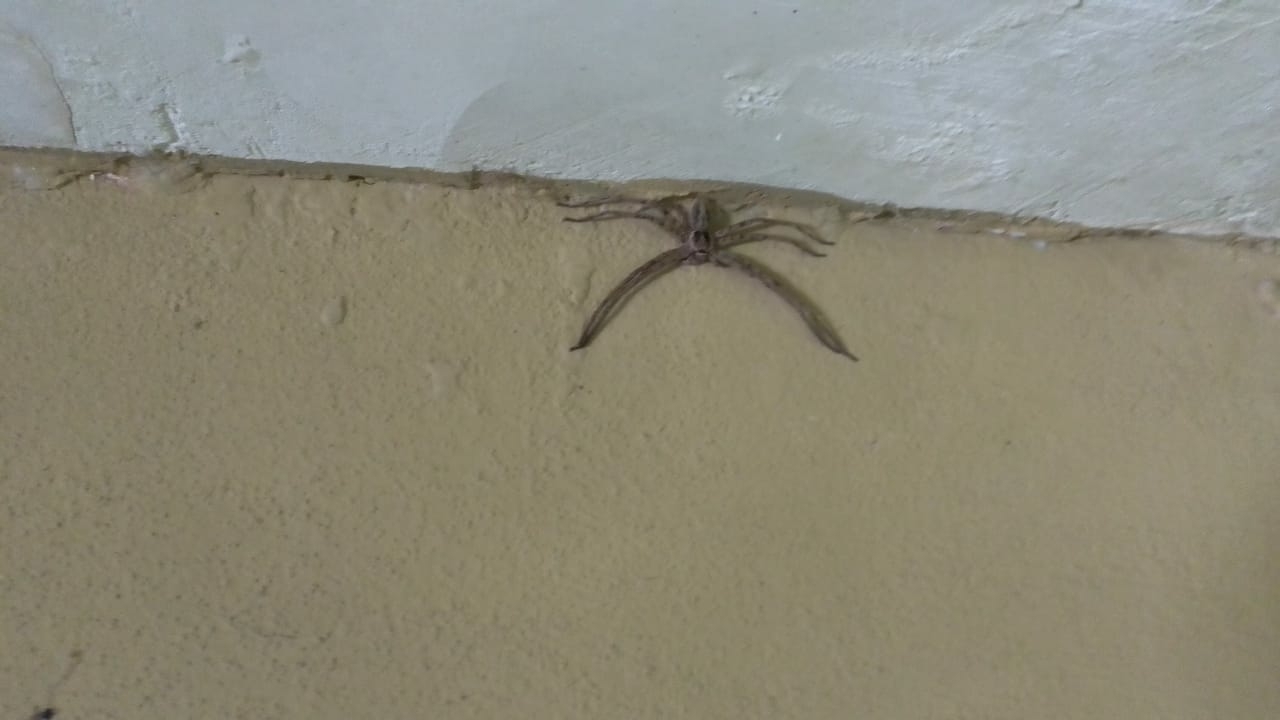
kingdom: Animalia
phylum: Arthropoda
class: Arachnida
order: Araneae
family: Sparassidae
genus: Heteropoda
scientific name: Heteropoda venatoria
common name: Huntsman spider
